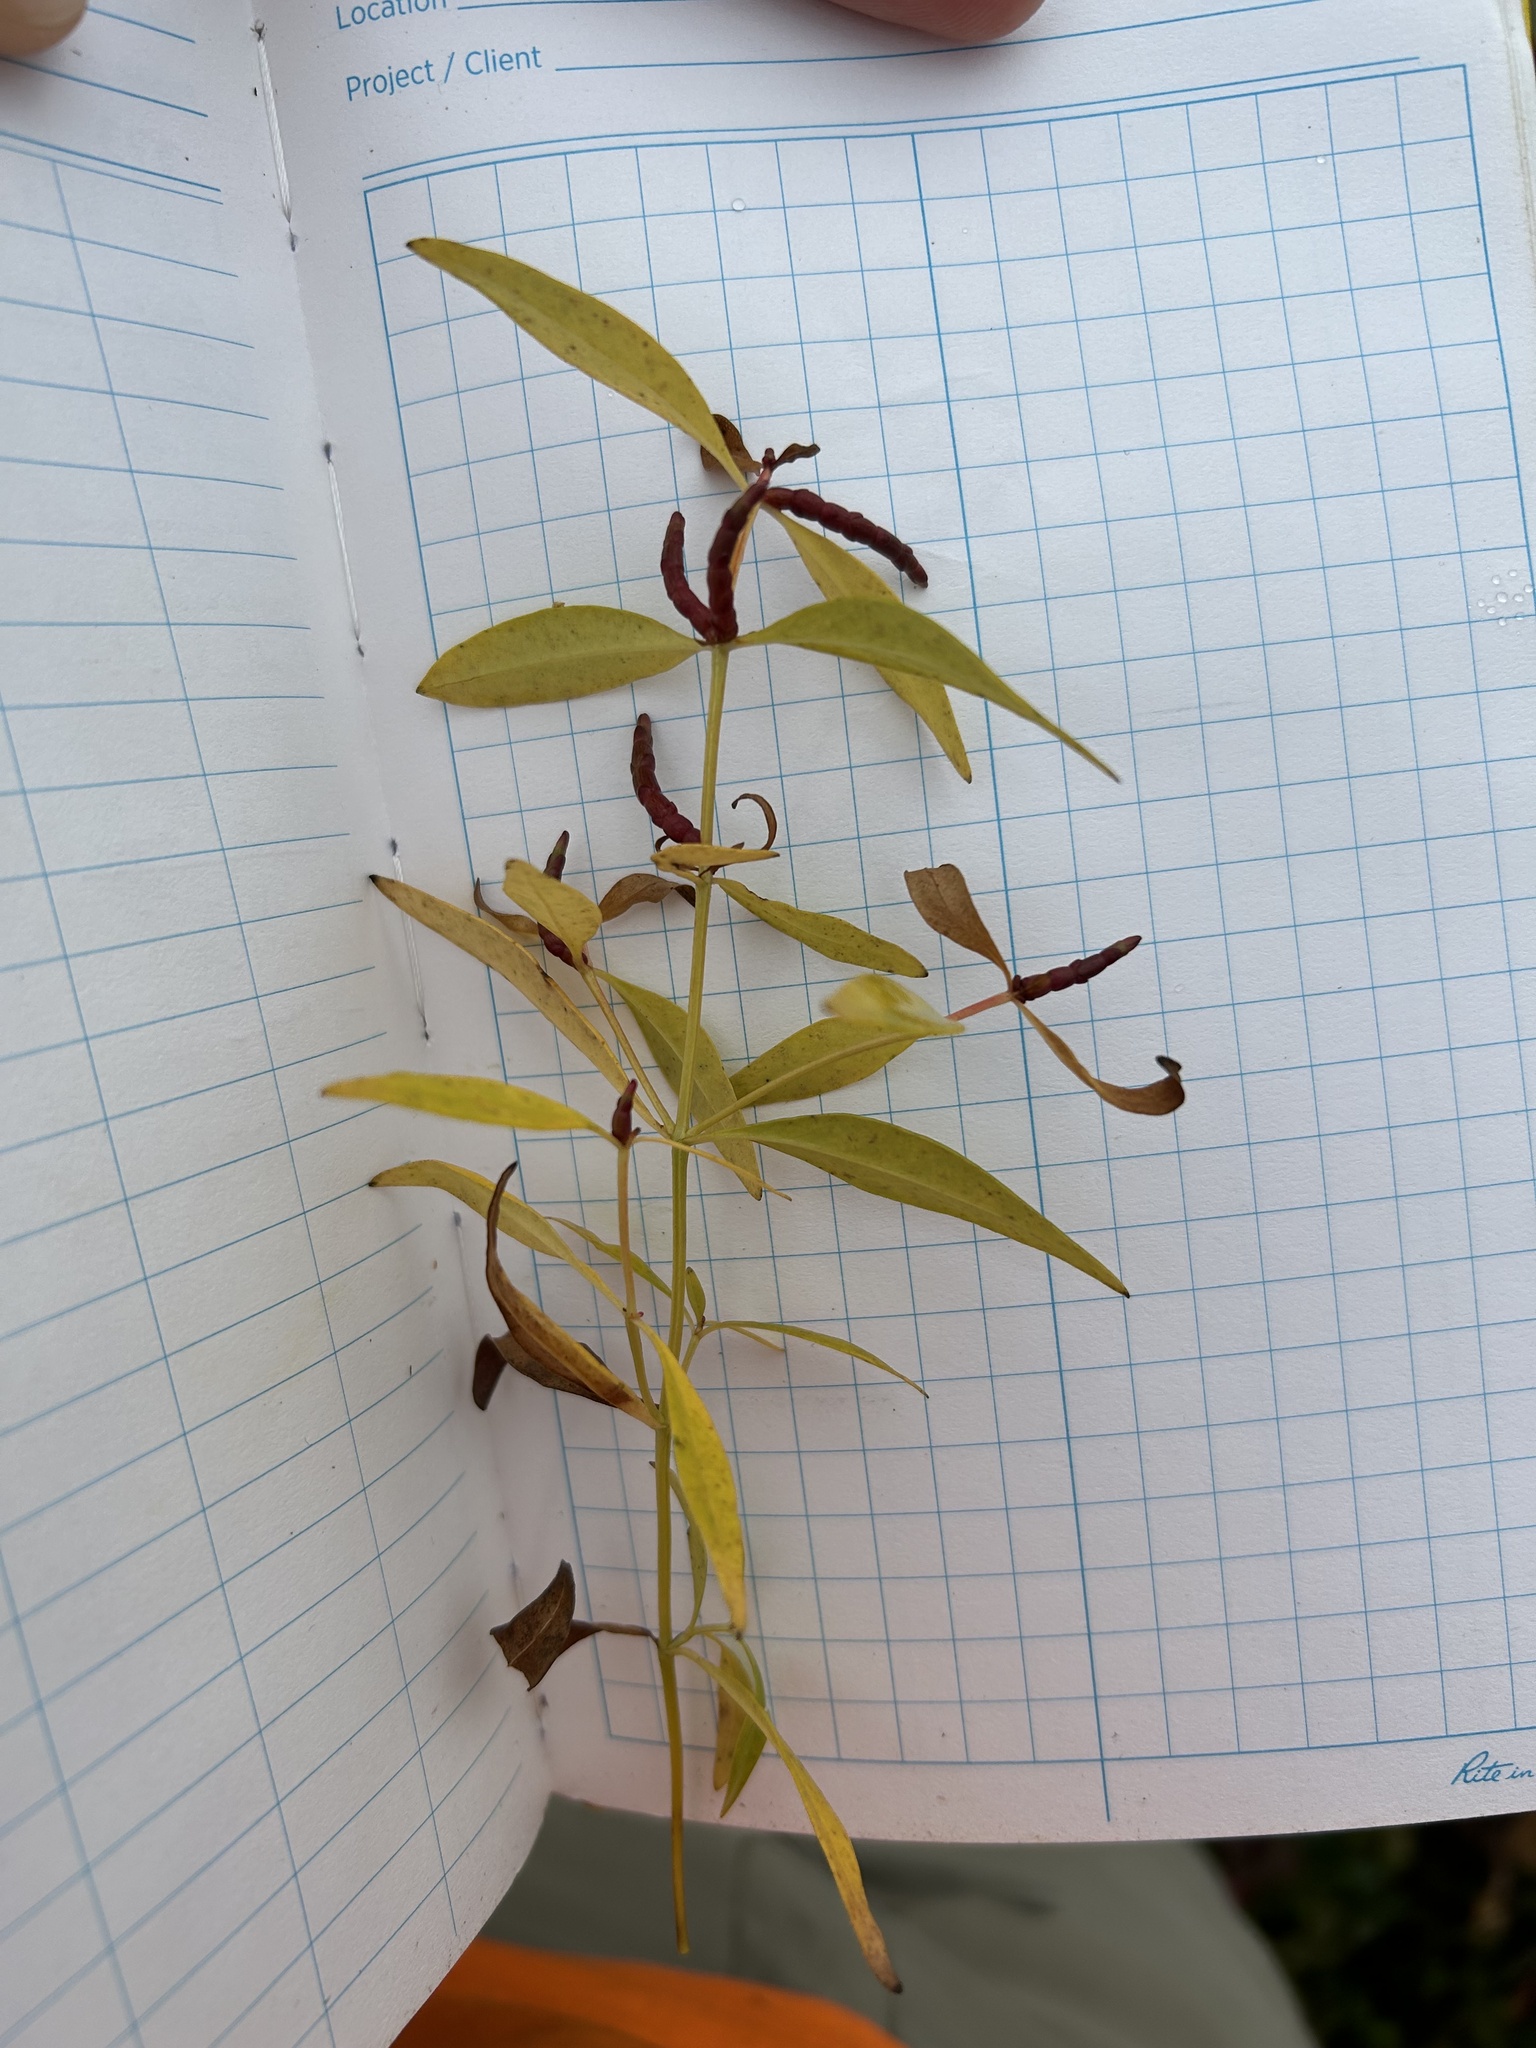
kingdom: Plantae
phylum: Tracheophyta
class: Magnoliopsida
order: Ericales
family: Primulaceae
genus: Lysimachia
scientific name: Lysimachia terrestris
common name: Lake loosestrife
